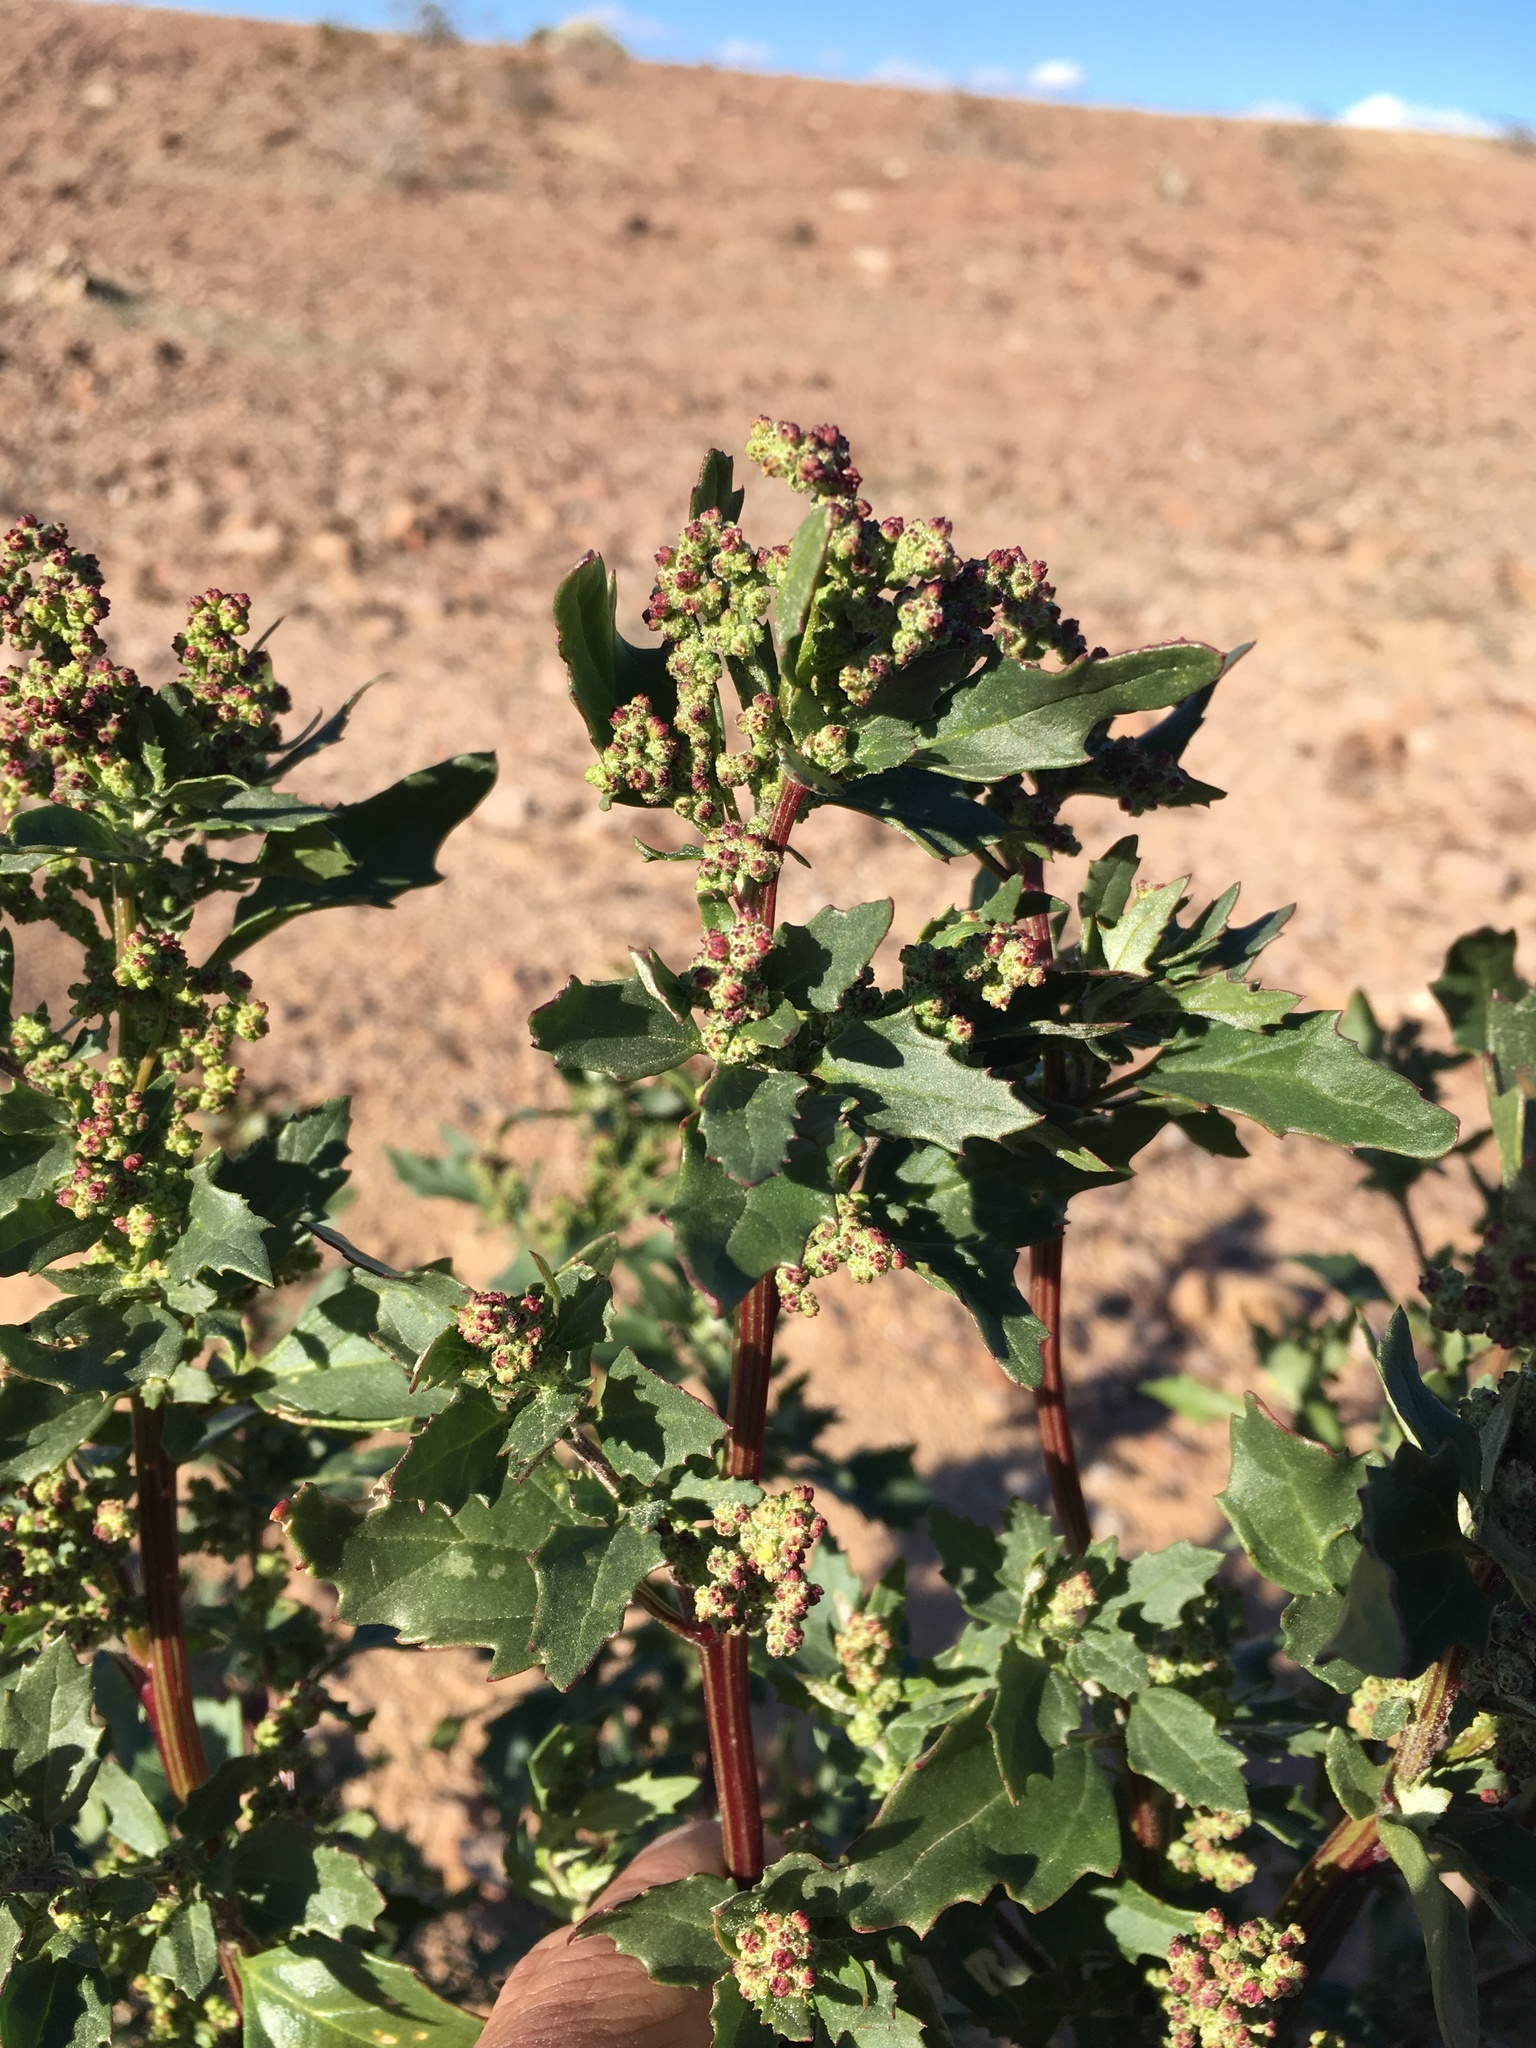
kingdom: Plantae
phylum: Tracheophyta
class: Magnoliopsida
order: Caryophyllales
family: Amaranthaceae
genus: Chenopodiastrum
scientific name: Chenopodiastrum murale
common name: Sowbane
